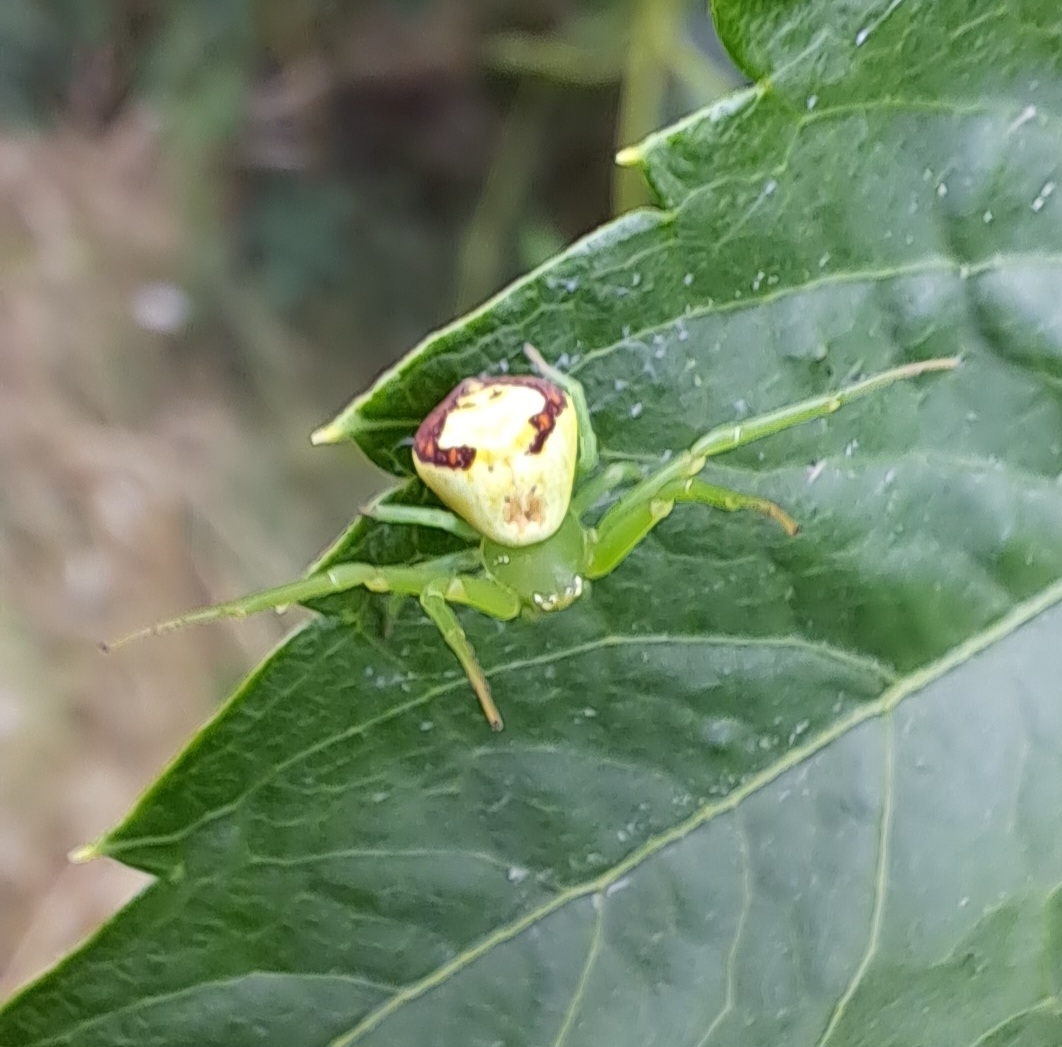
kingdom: Animalia
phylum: Arthropoda
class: Arachnida
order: Araneae
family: Thomisidae
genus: Ebrechtella
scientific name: Ebrechtella tricuspidata
